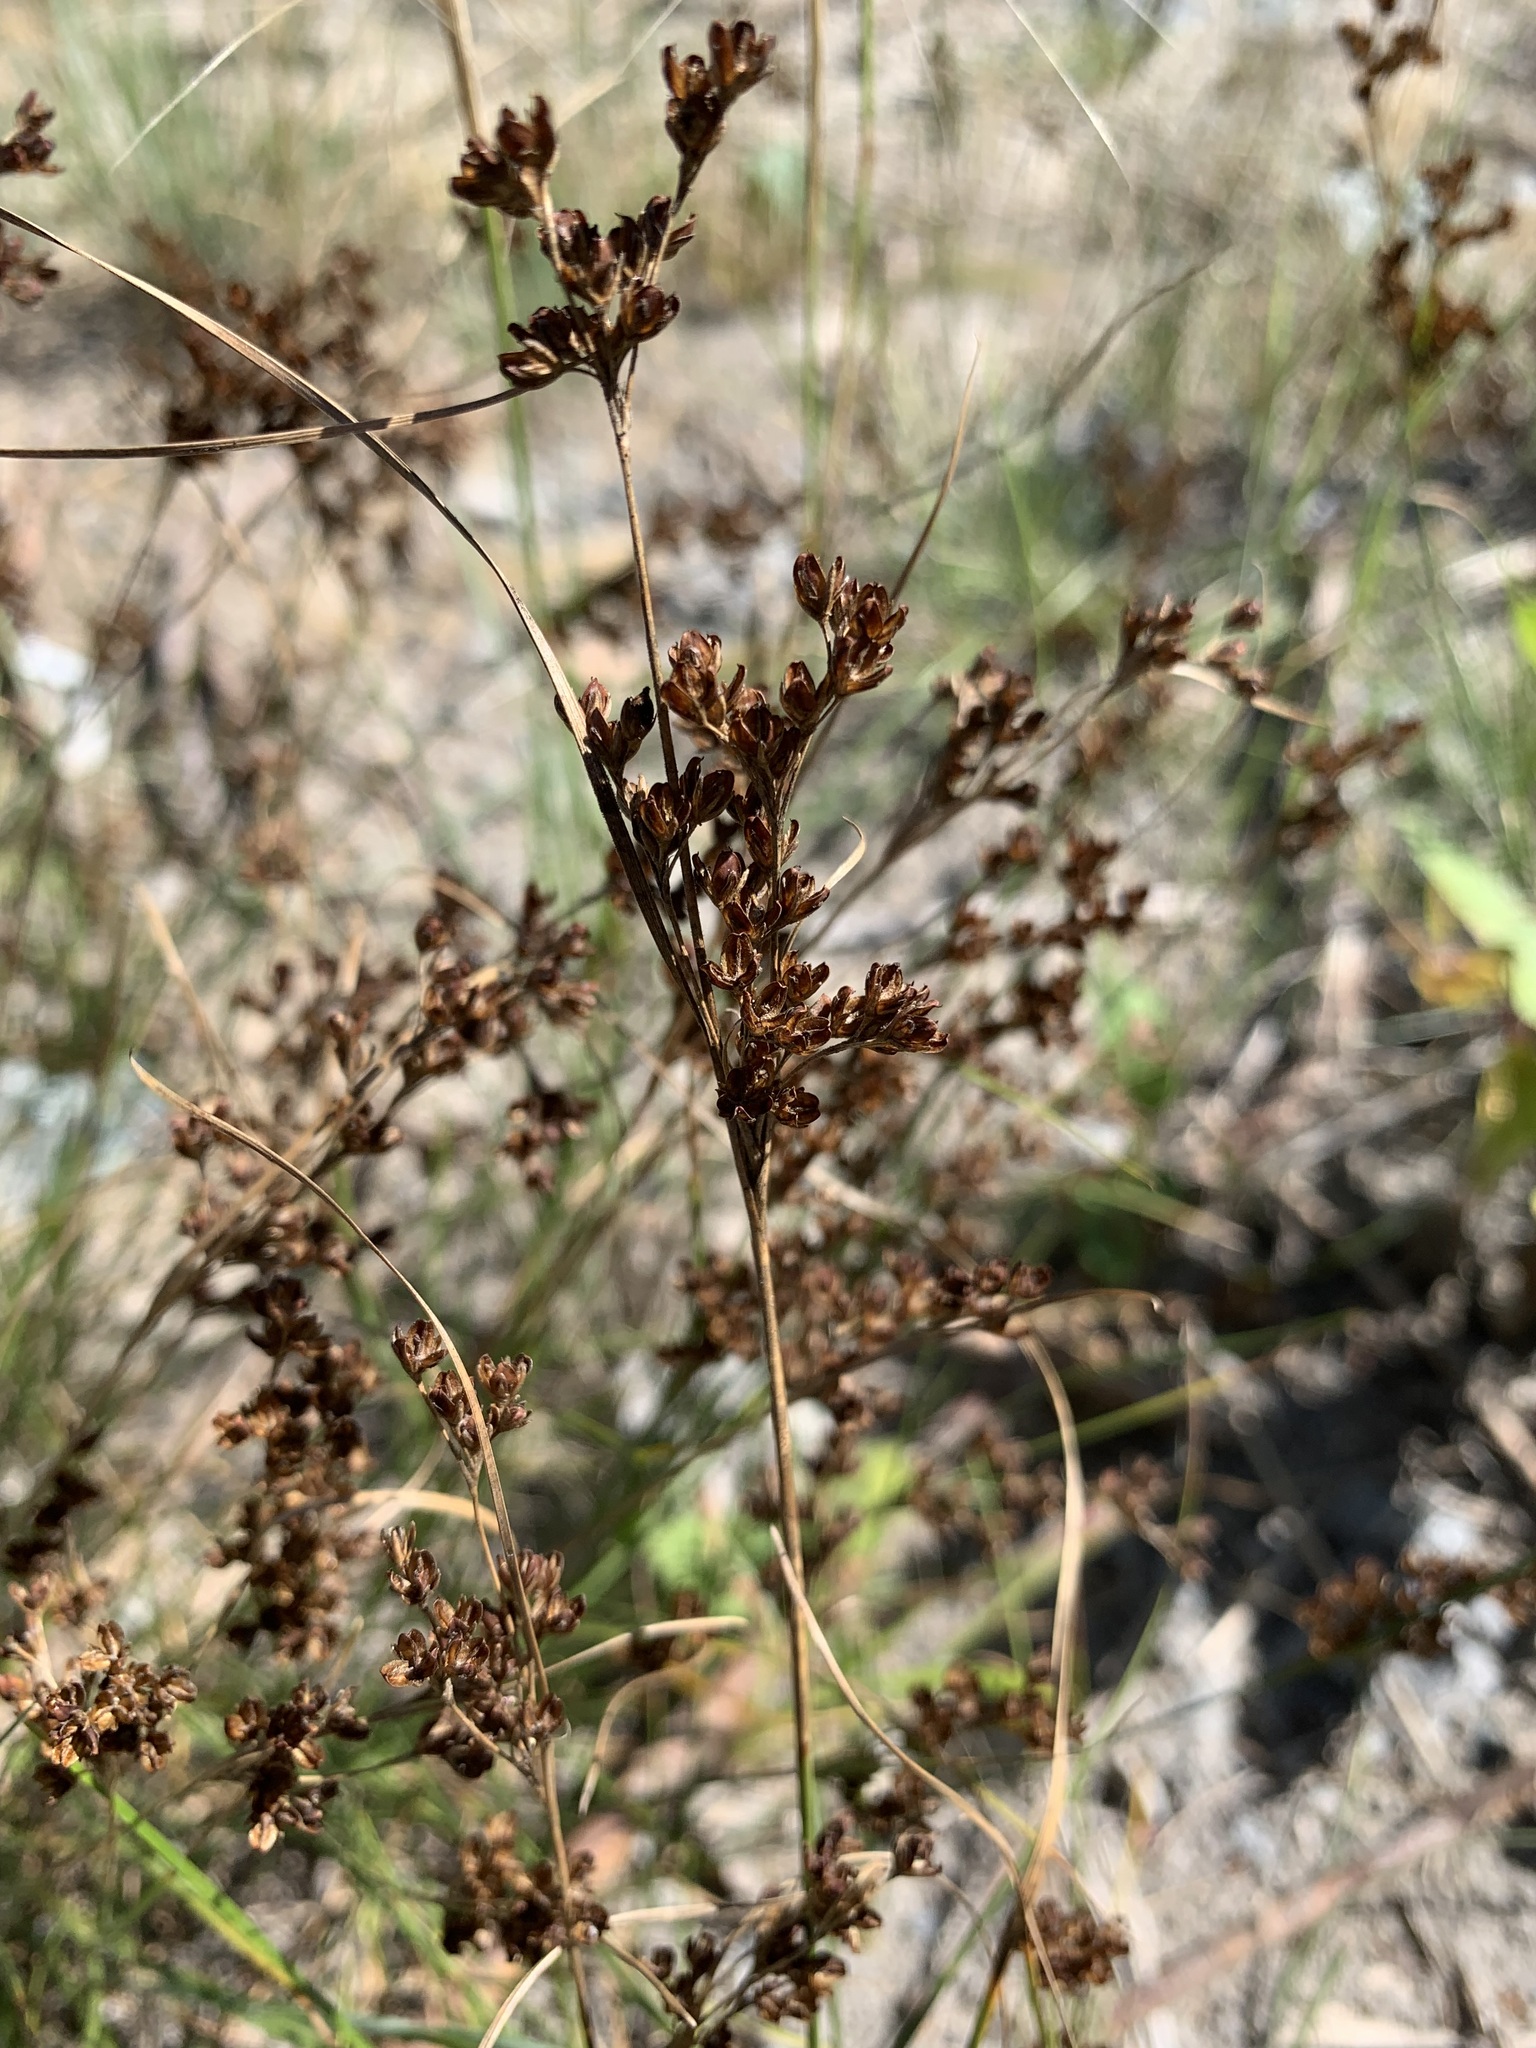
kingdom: Plantae
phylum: Tracheophyta
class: Liliopsida
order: Poales
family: Juncaceae
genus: Juncus
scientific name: Juncus compressus
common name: Round-fruited rush
